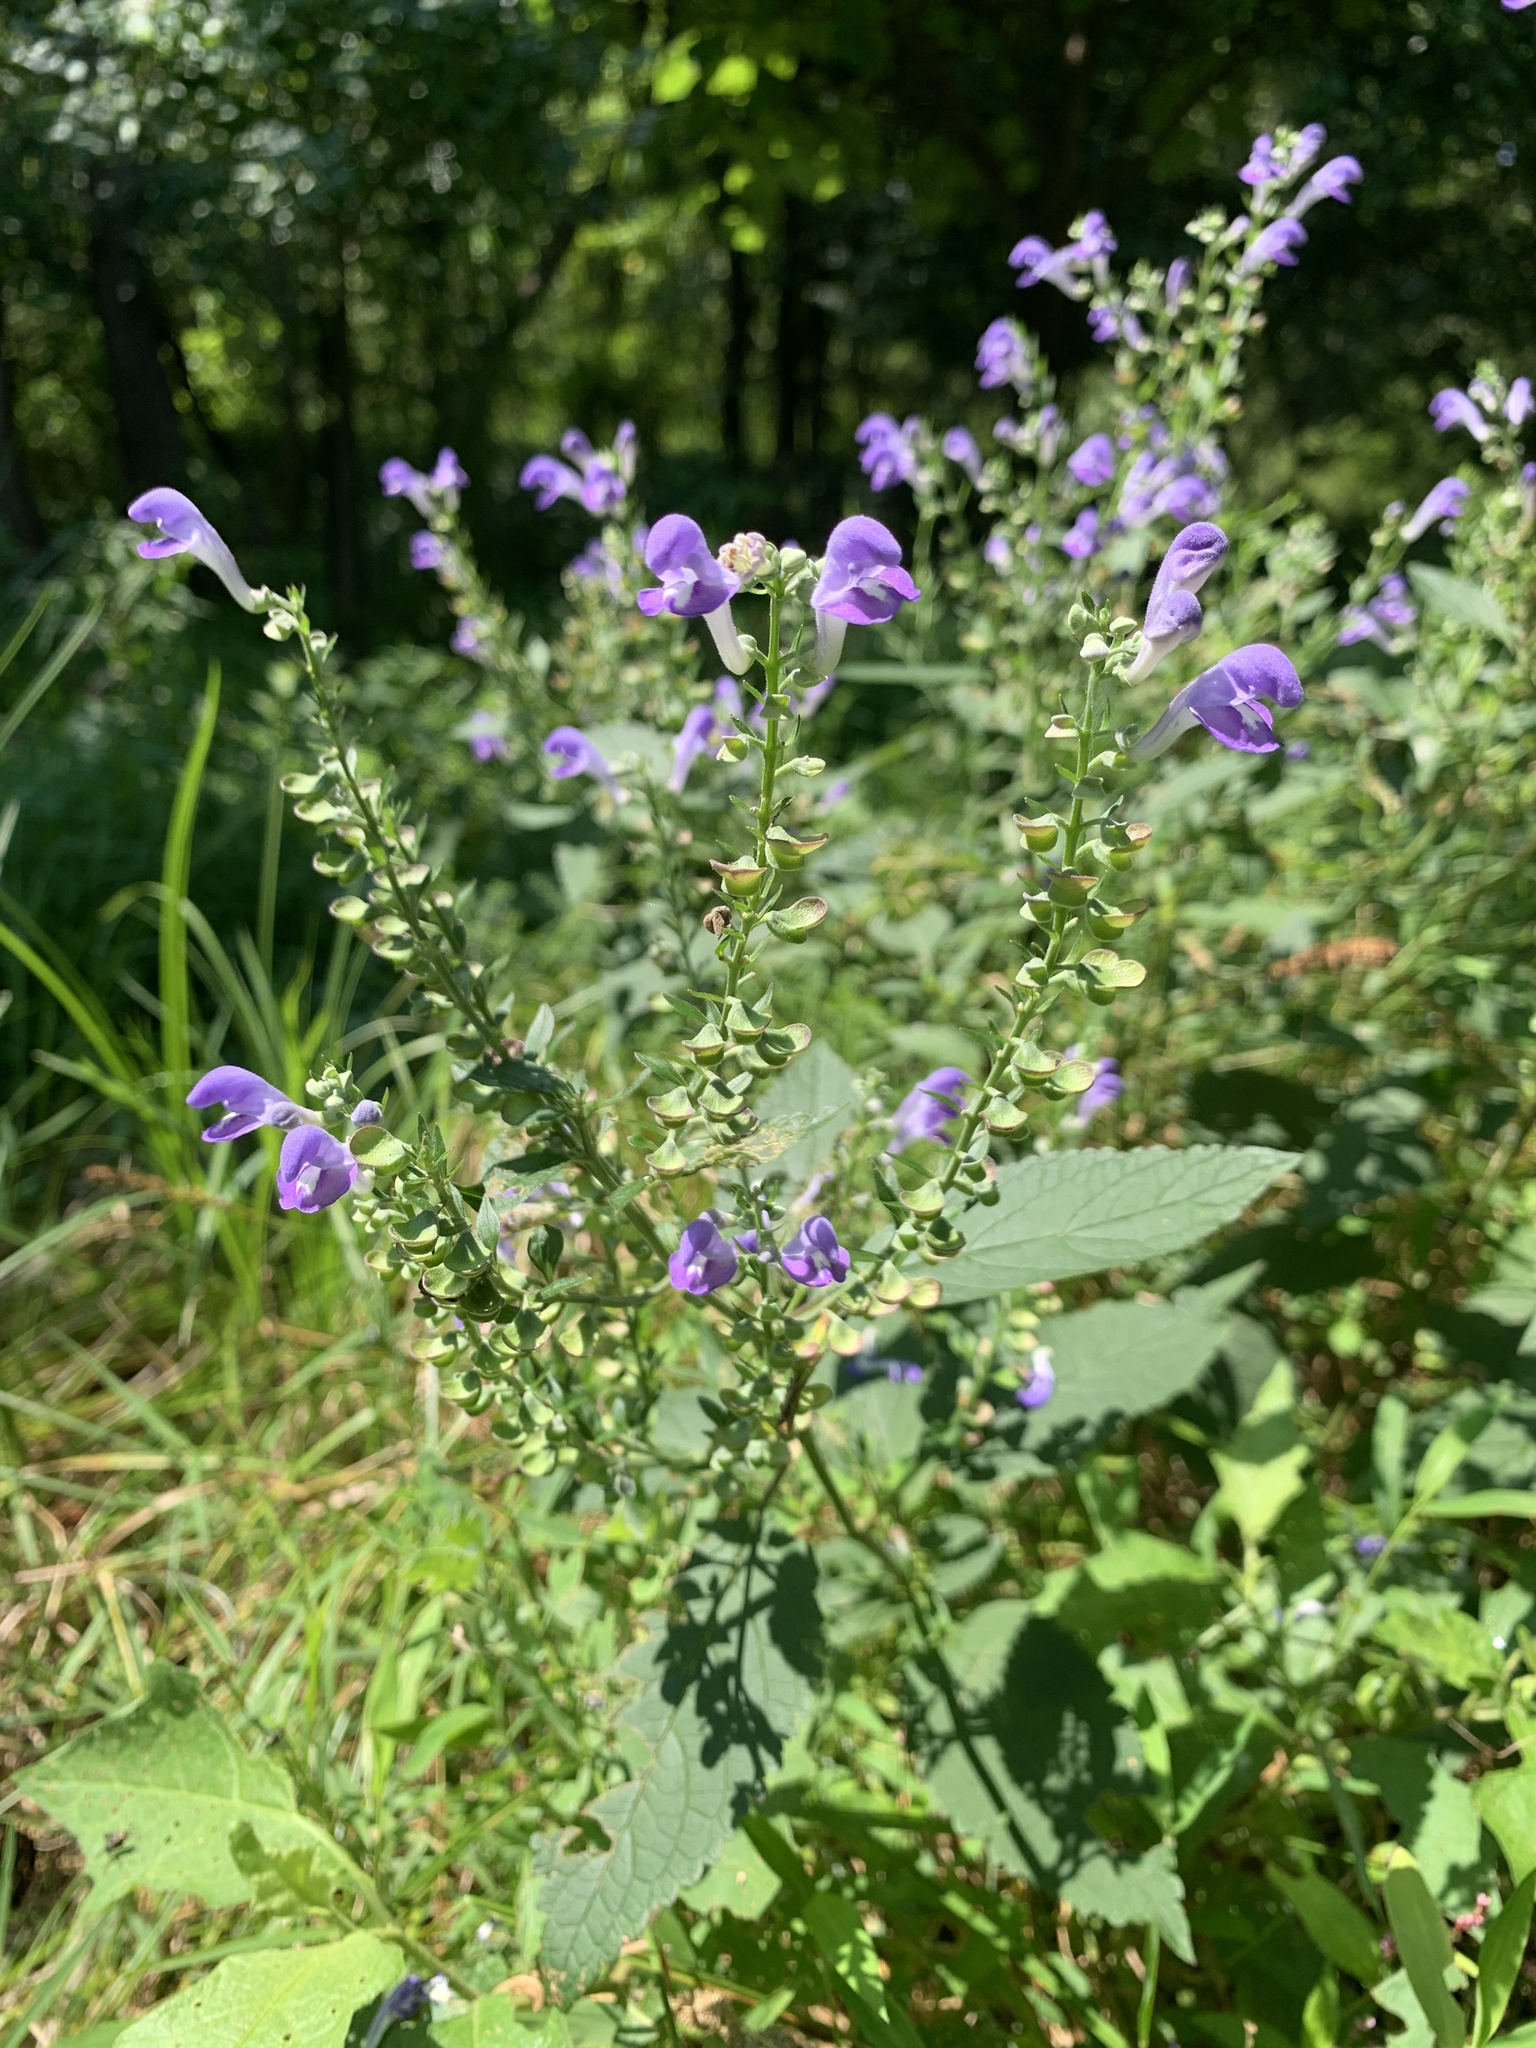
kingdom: Plantae
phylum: Tracheophyta
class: Magnoliopsida
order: Lamiales
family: Lamiaceae
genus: Scutellaria
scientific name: Scutellaria incana
